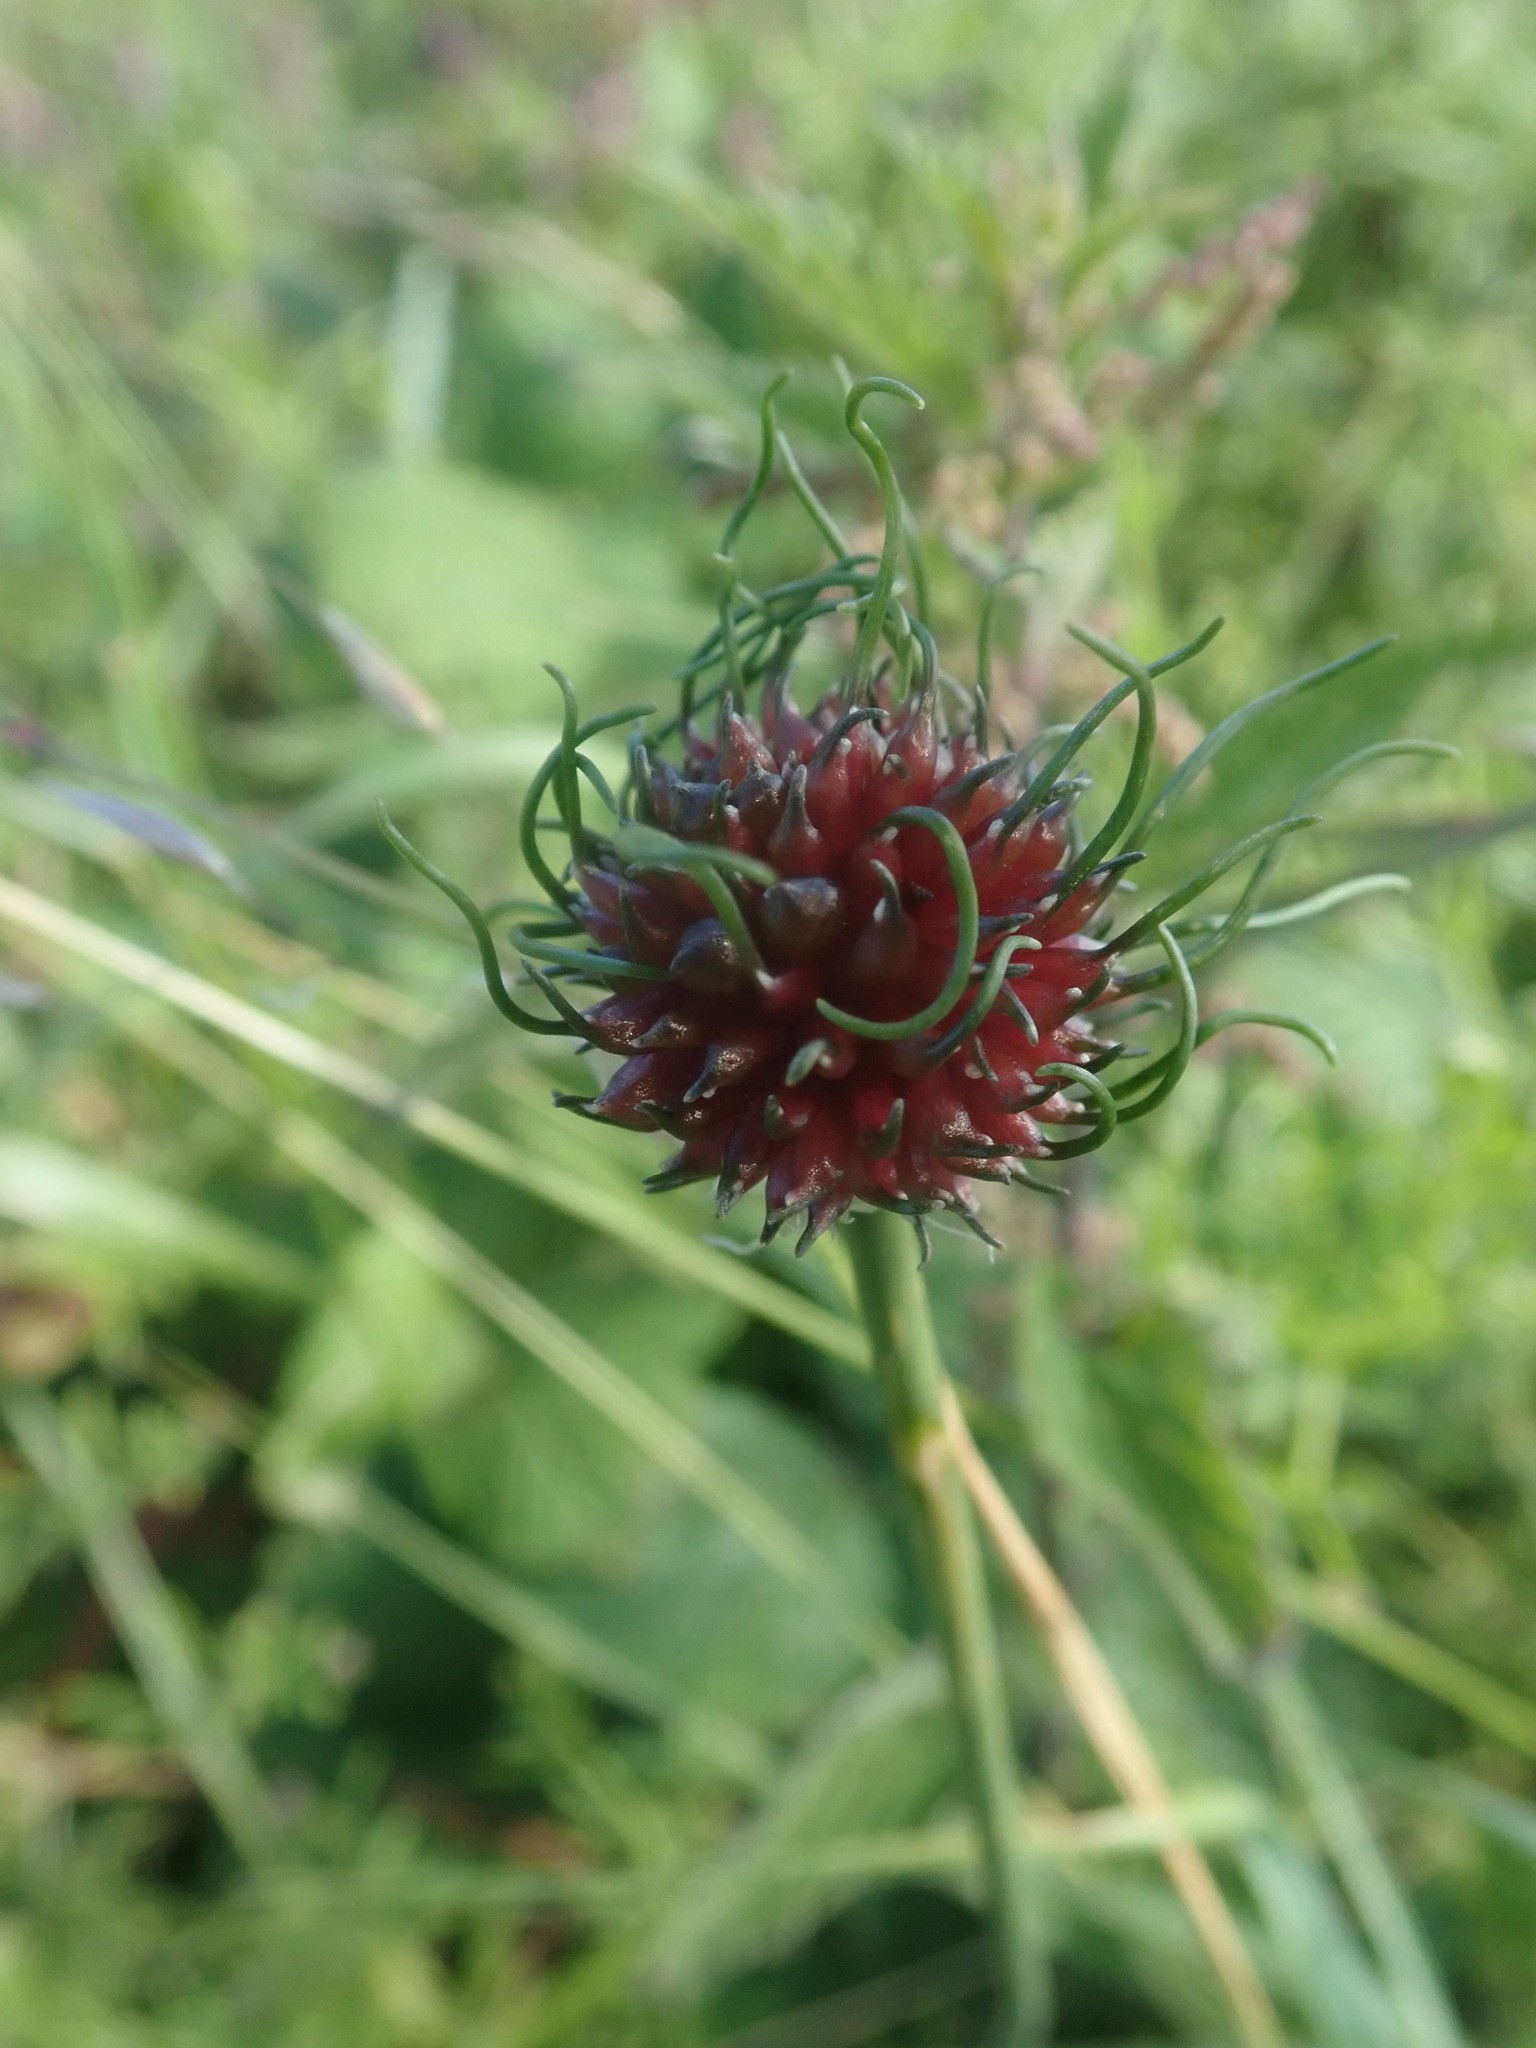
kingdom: Plantae
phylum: Tracheophyta
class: Liliopsida
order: Asparagales
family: Amaryllidaceae
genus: Allium
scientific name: Allium vineale
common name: Crow garlic
